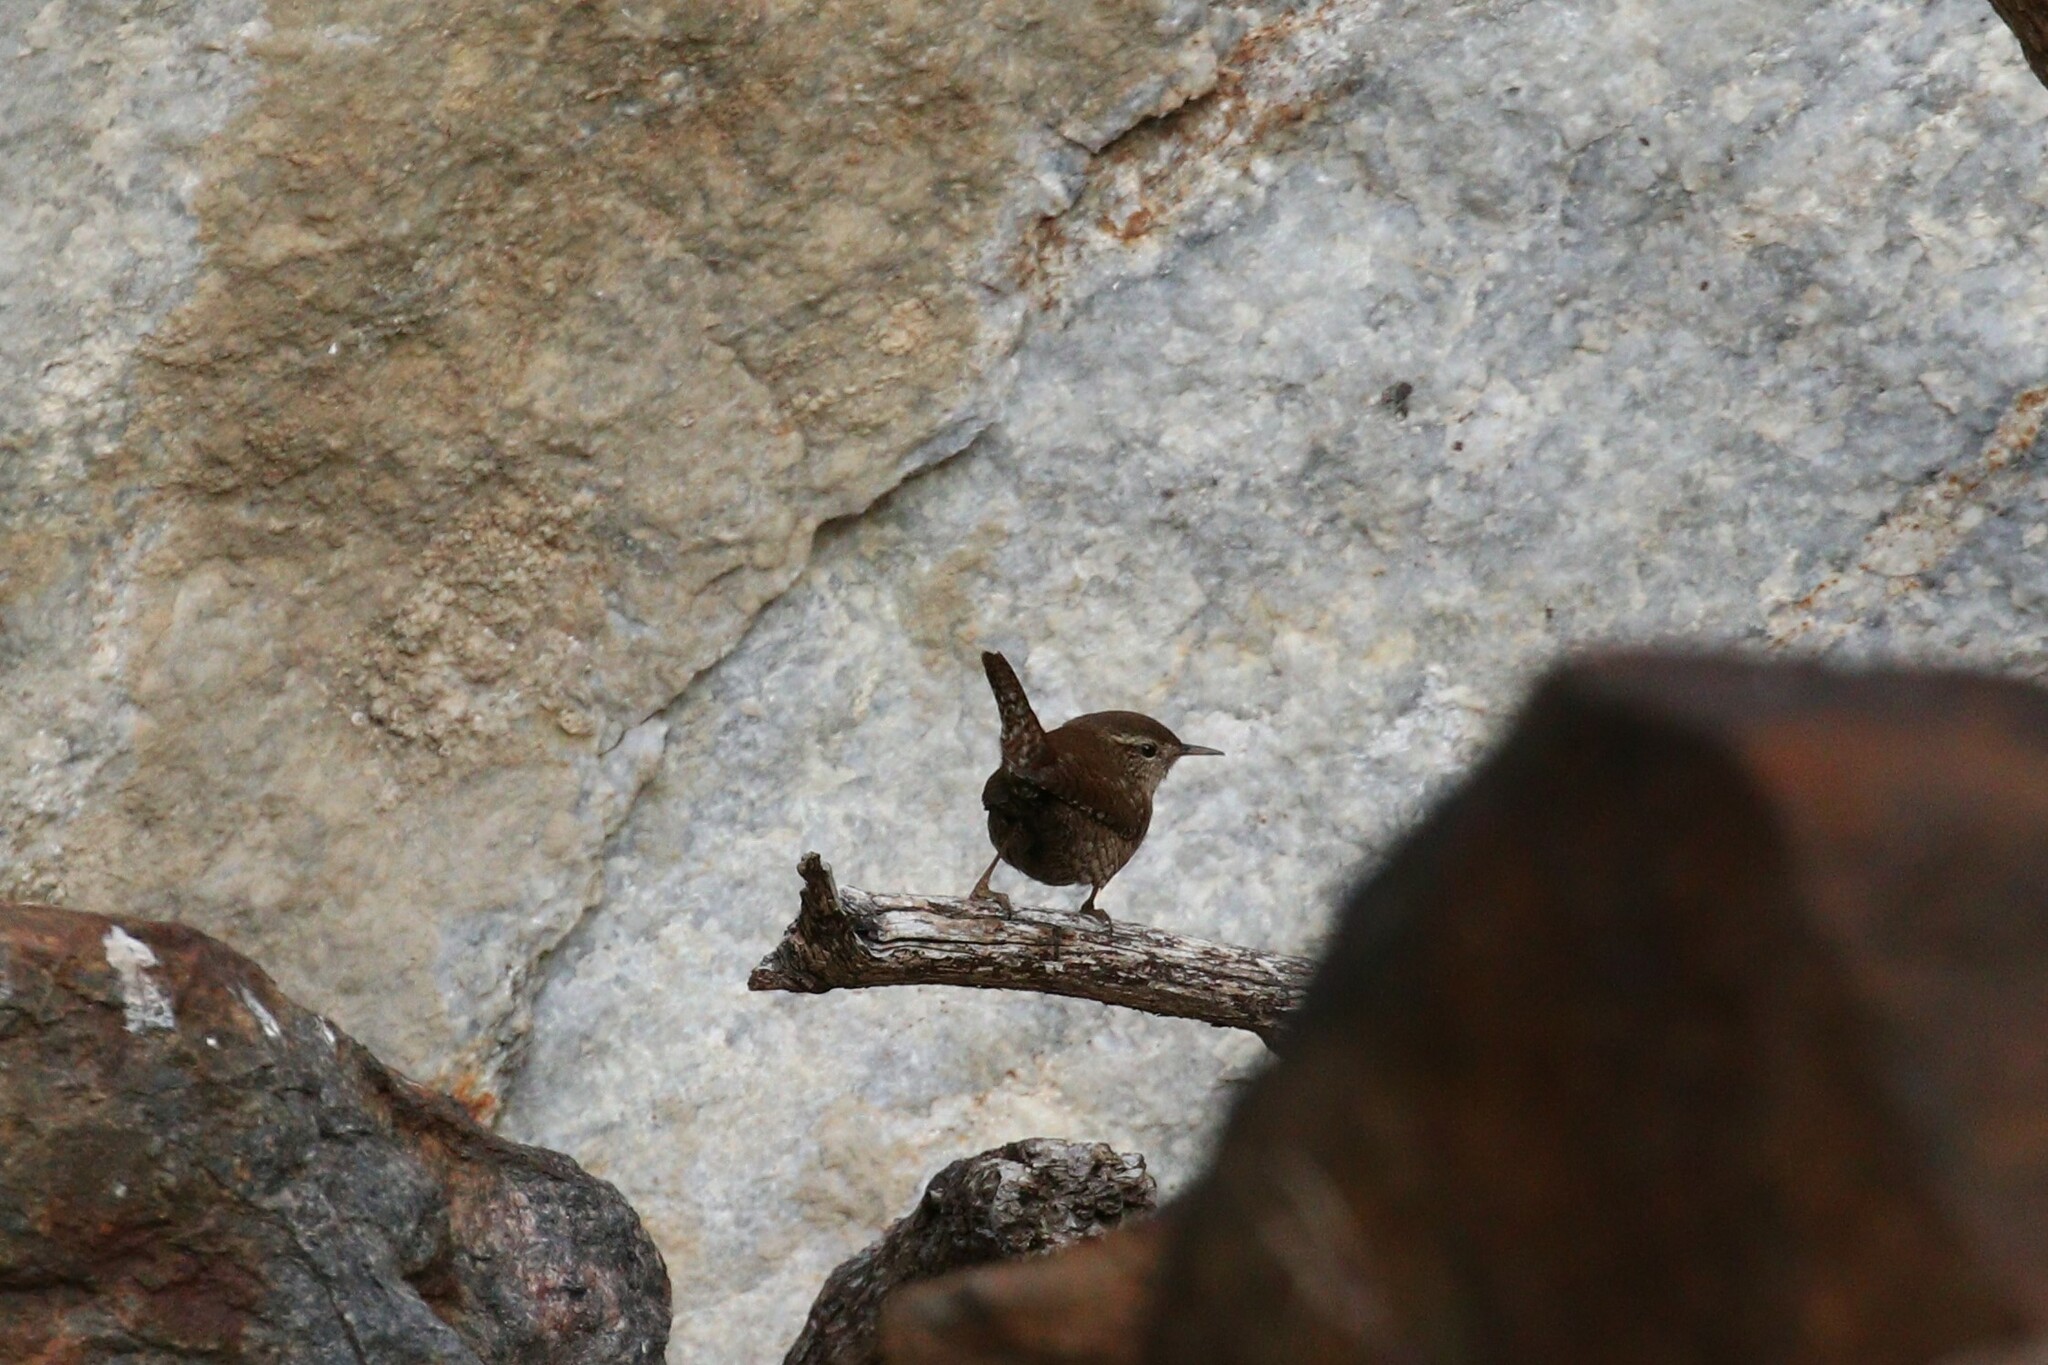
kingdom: Animalia
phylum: Chordata
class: Aves
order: Passeriformes
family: Troglodytidae
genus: Troglodytes
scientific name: Troglodytes troglodytes
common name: Eurasian wren
